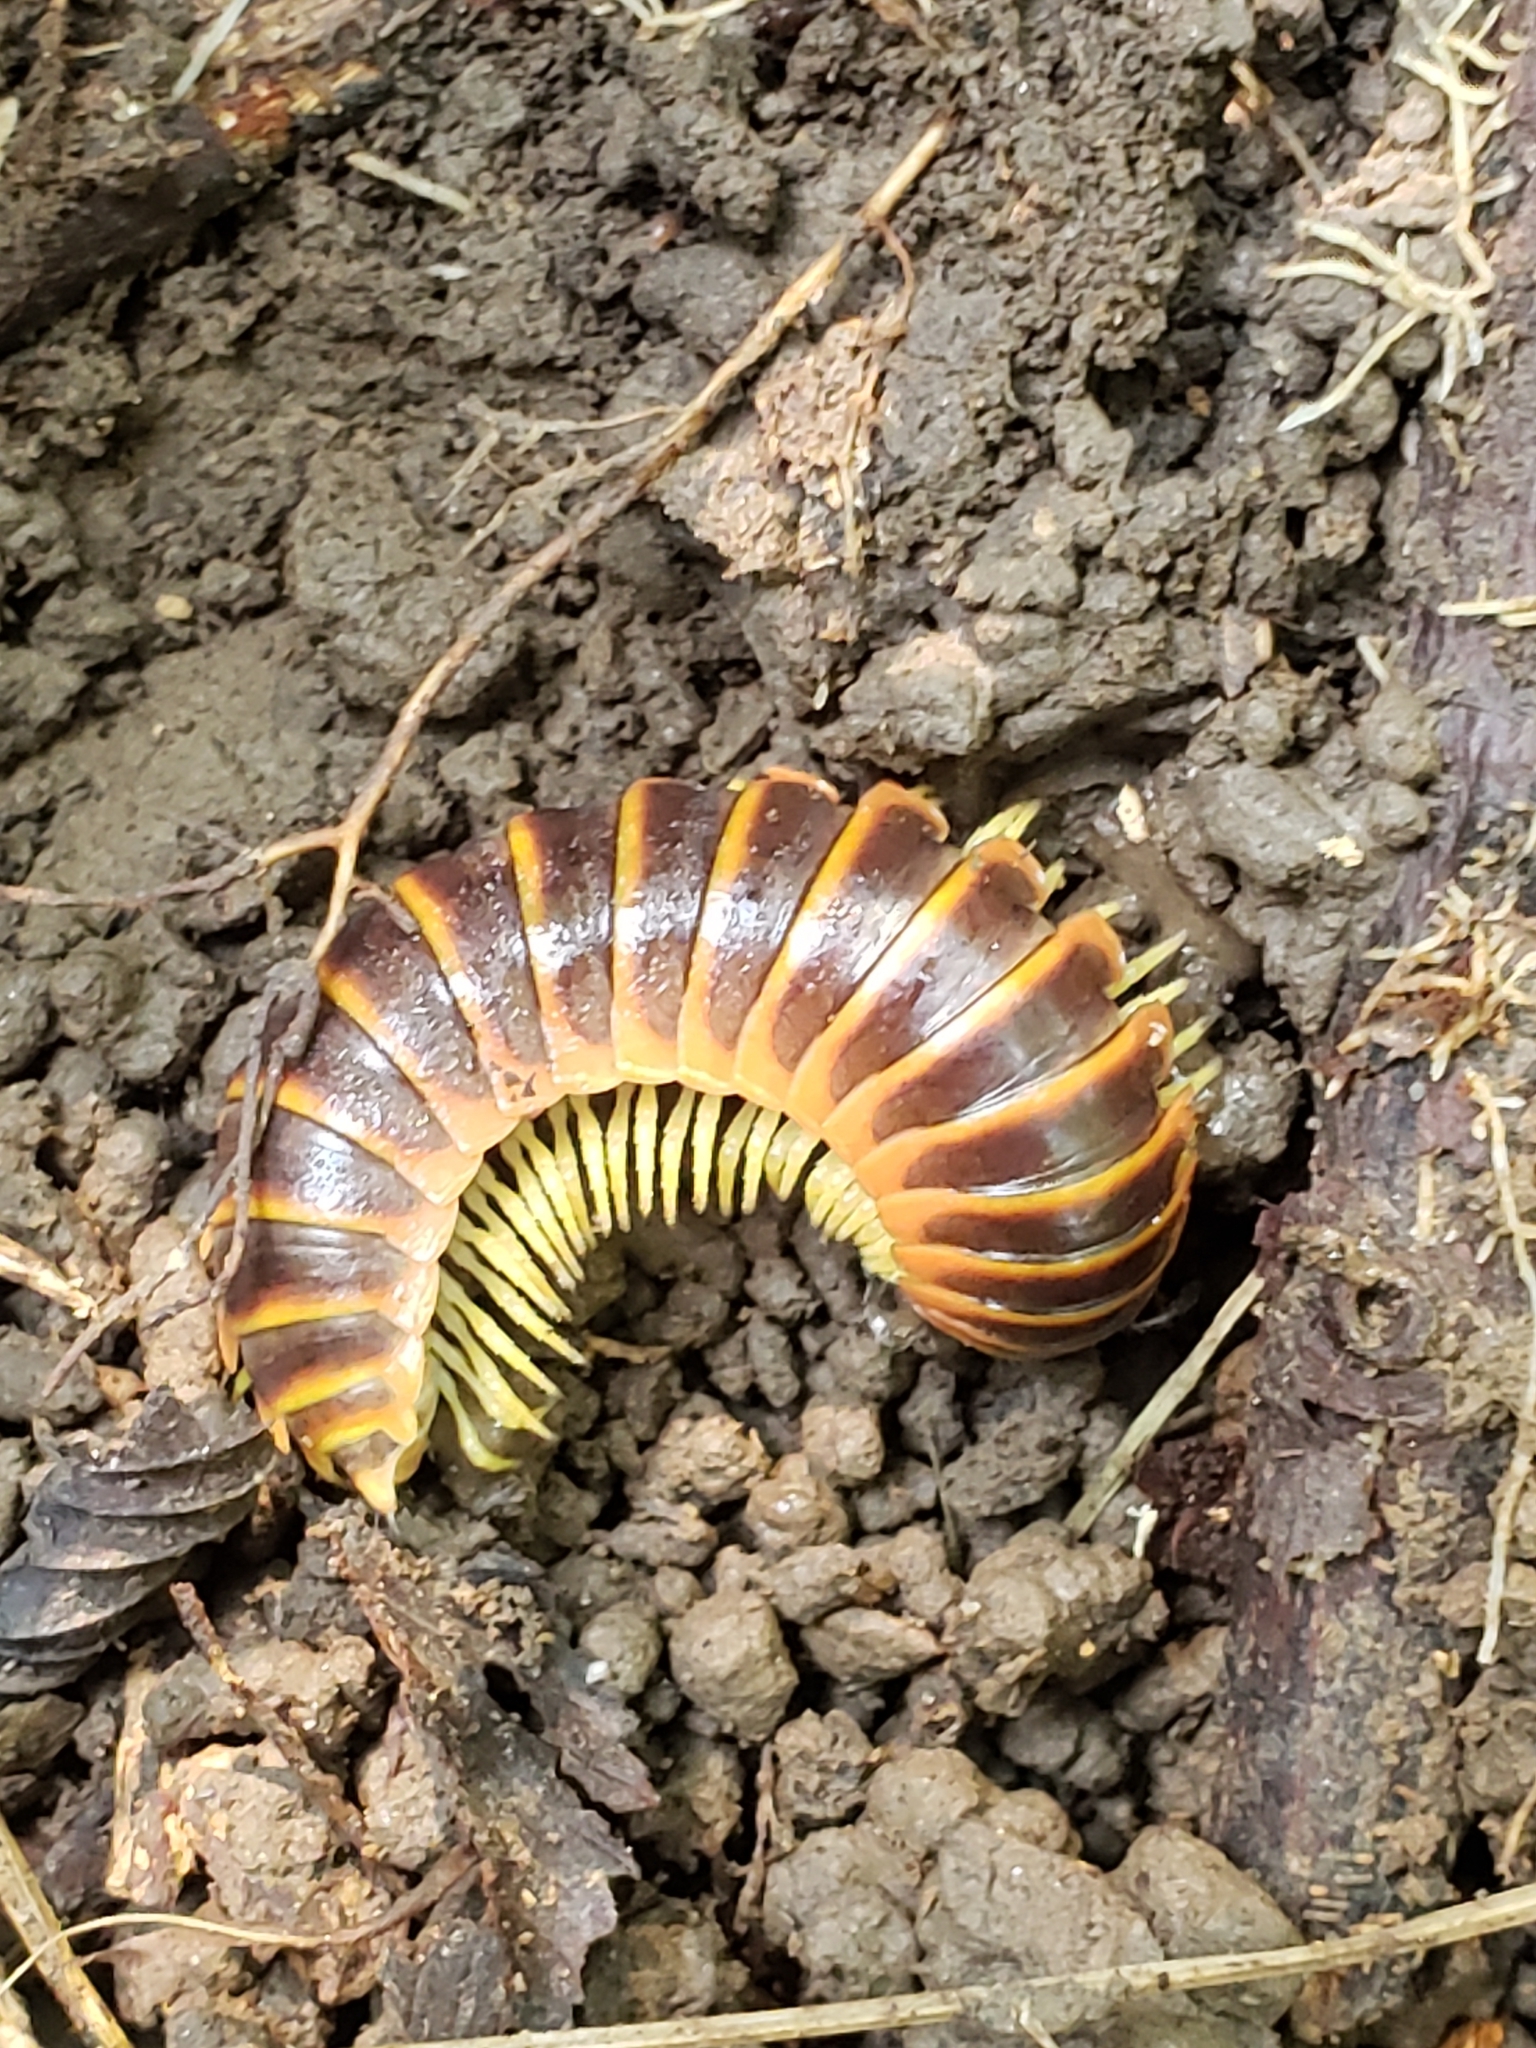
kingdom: Animalia
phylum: Arthropoda
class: Diplopoda
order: Polydesmida
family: Xystodesmidae
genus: Apheloria
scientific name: Apheloria virginiensis
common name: Black-and-gold flat millipede
